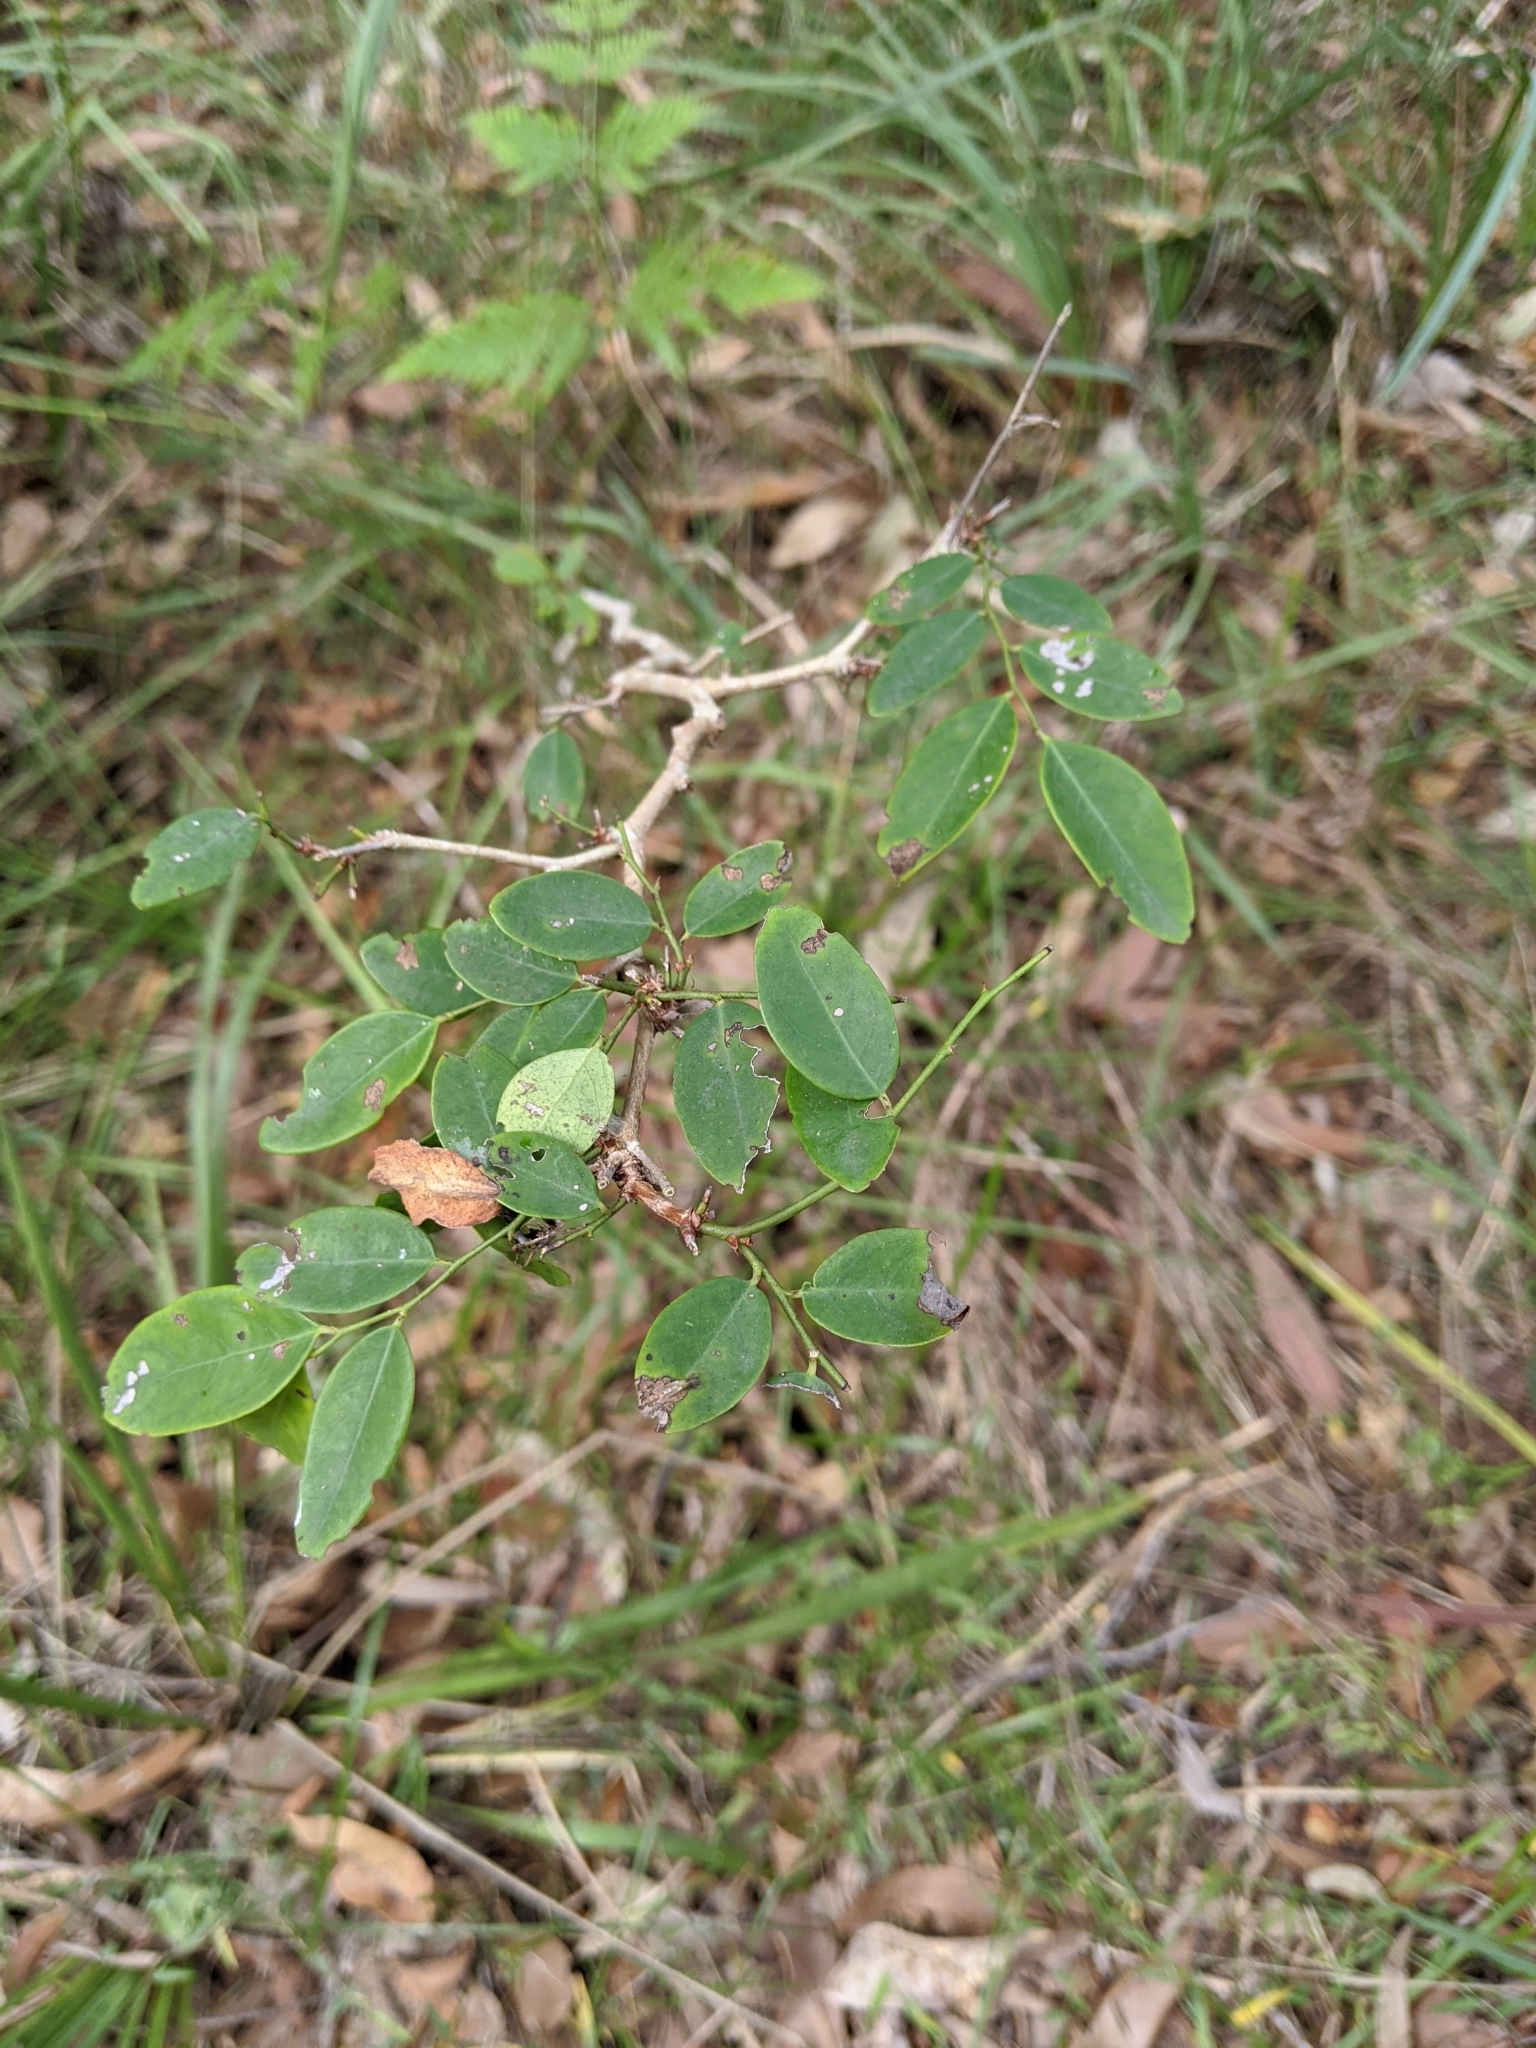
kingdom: Plantae
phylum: Tracheophyta
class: Magnoliopsida
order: Malpighiales
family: Phyllanthaceae
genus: Breynia
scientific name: Breynia oblongifolia
